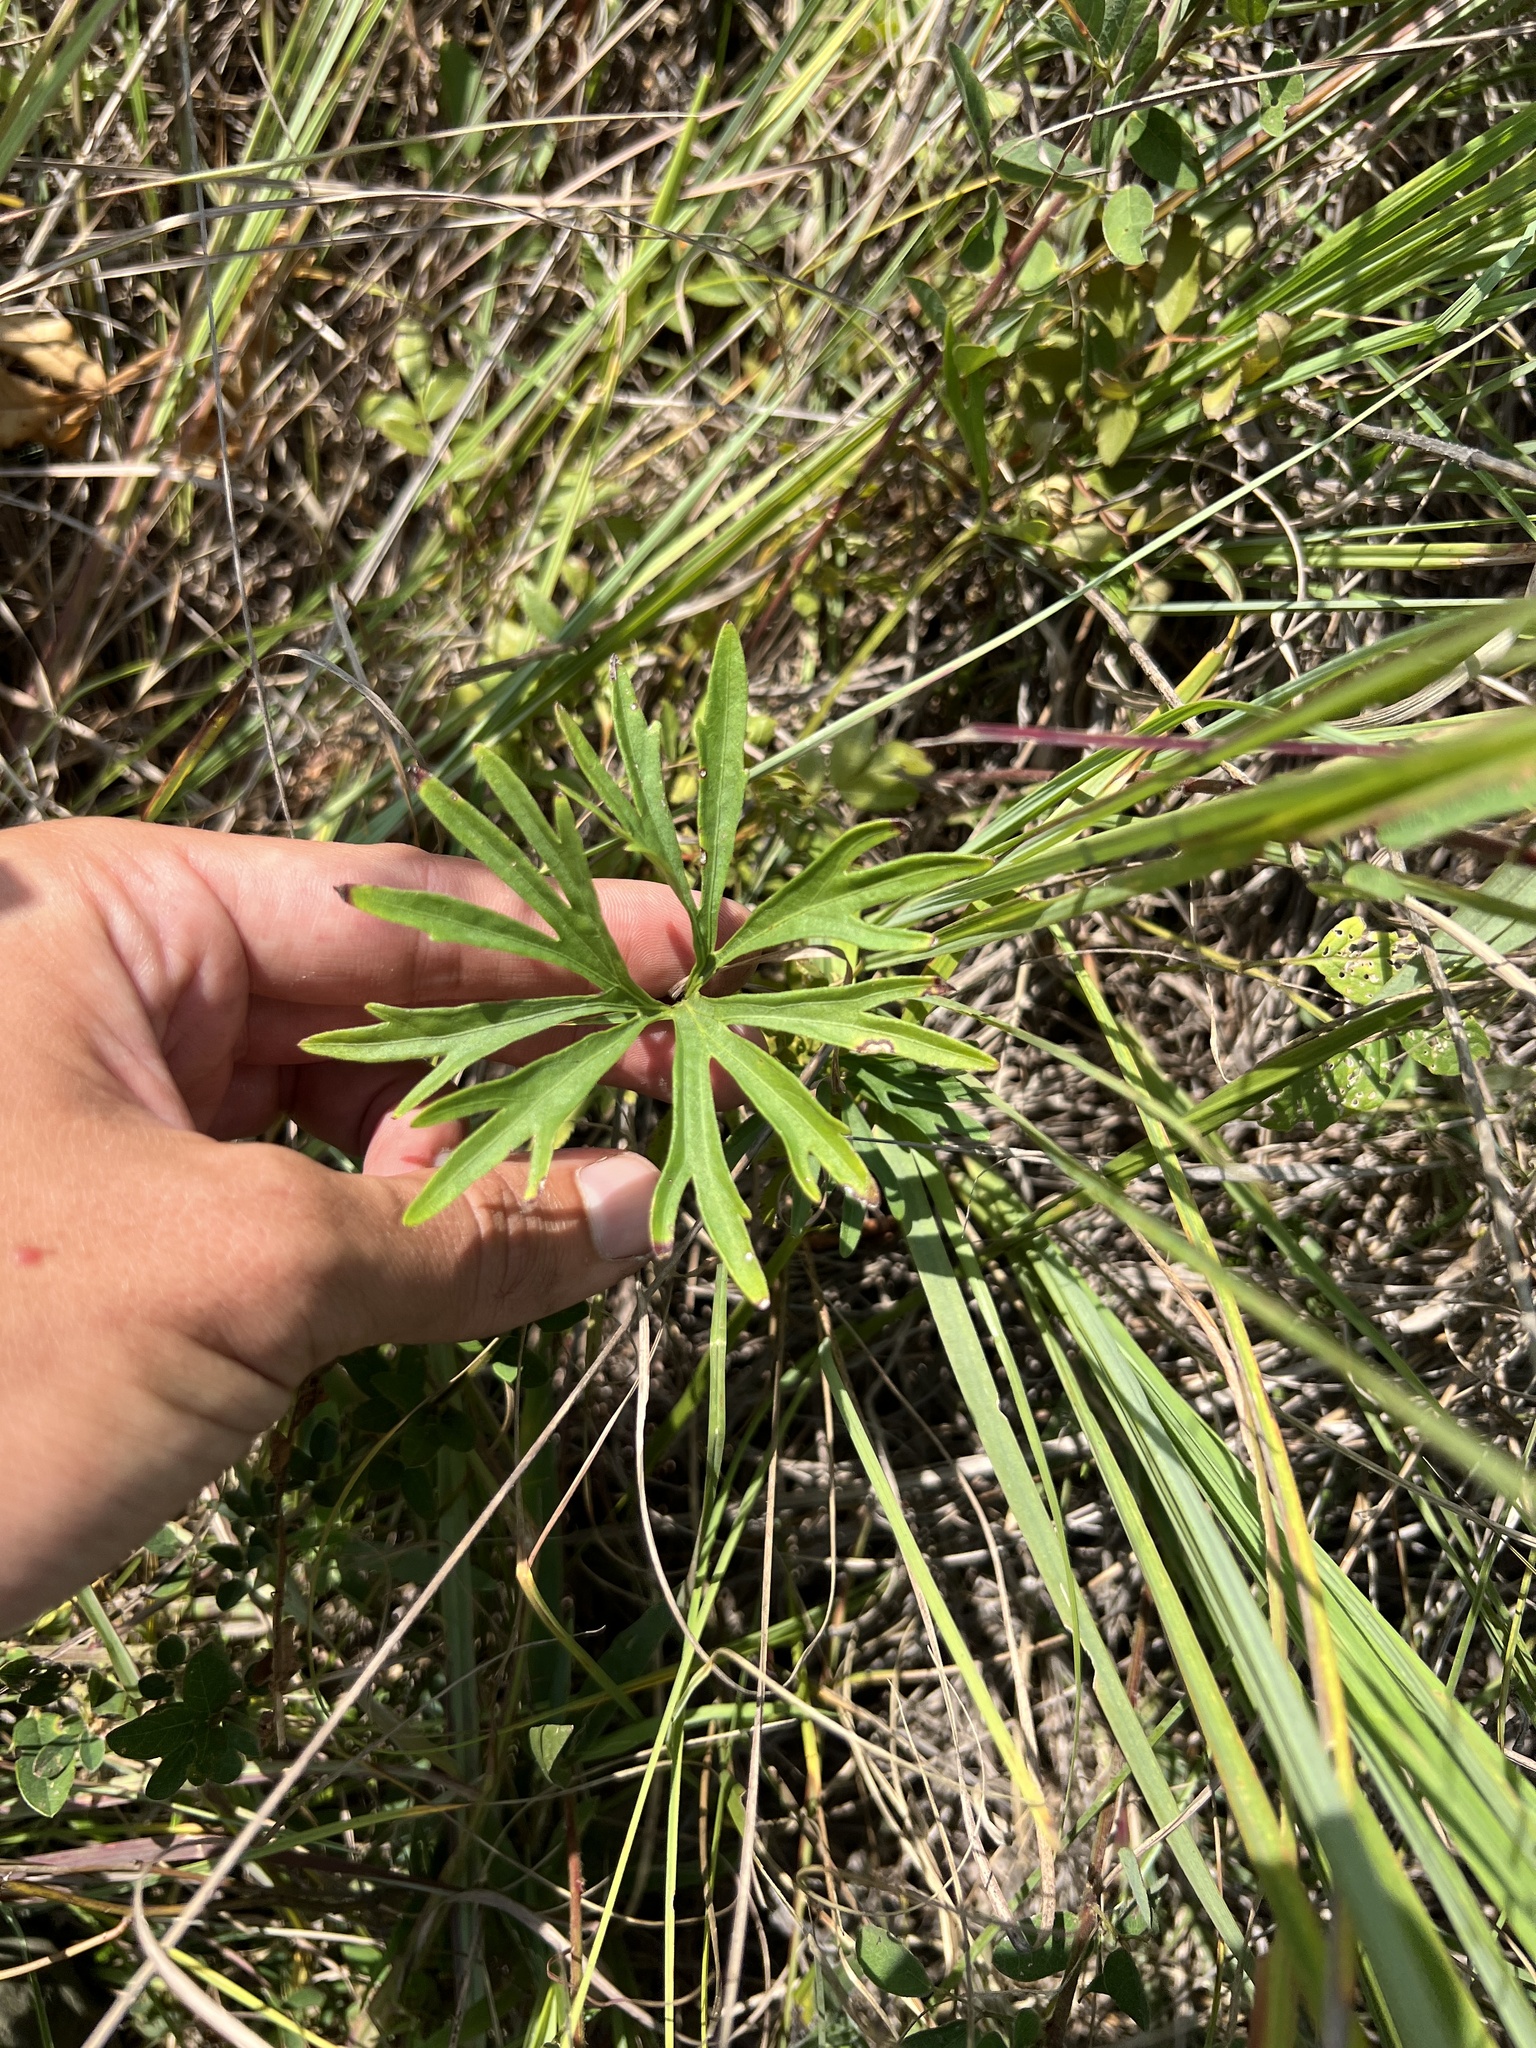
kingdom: Plantae
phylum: Tracheophyta
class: Magnoliopsida
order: Malpighiales
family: Violaceae
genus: Viola
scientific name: Viola pedatifida
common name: Prairie violet
